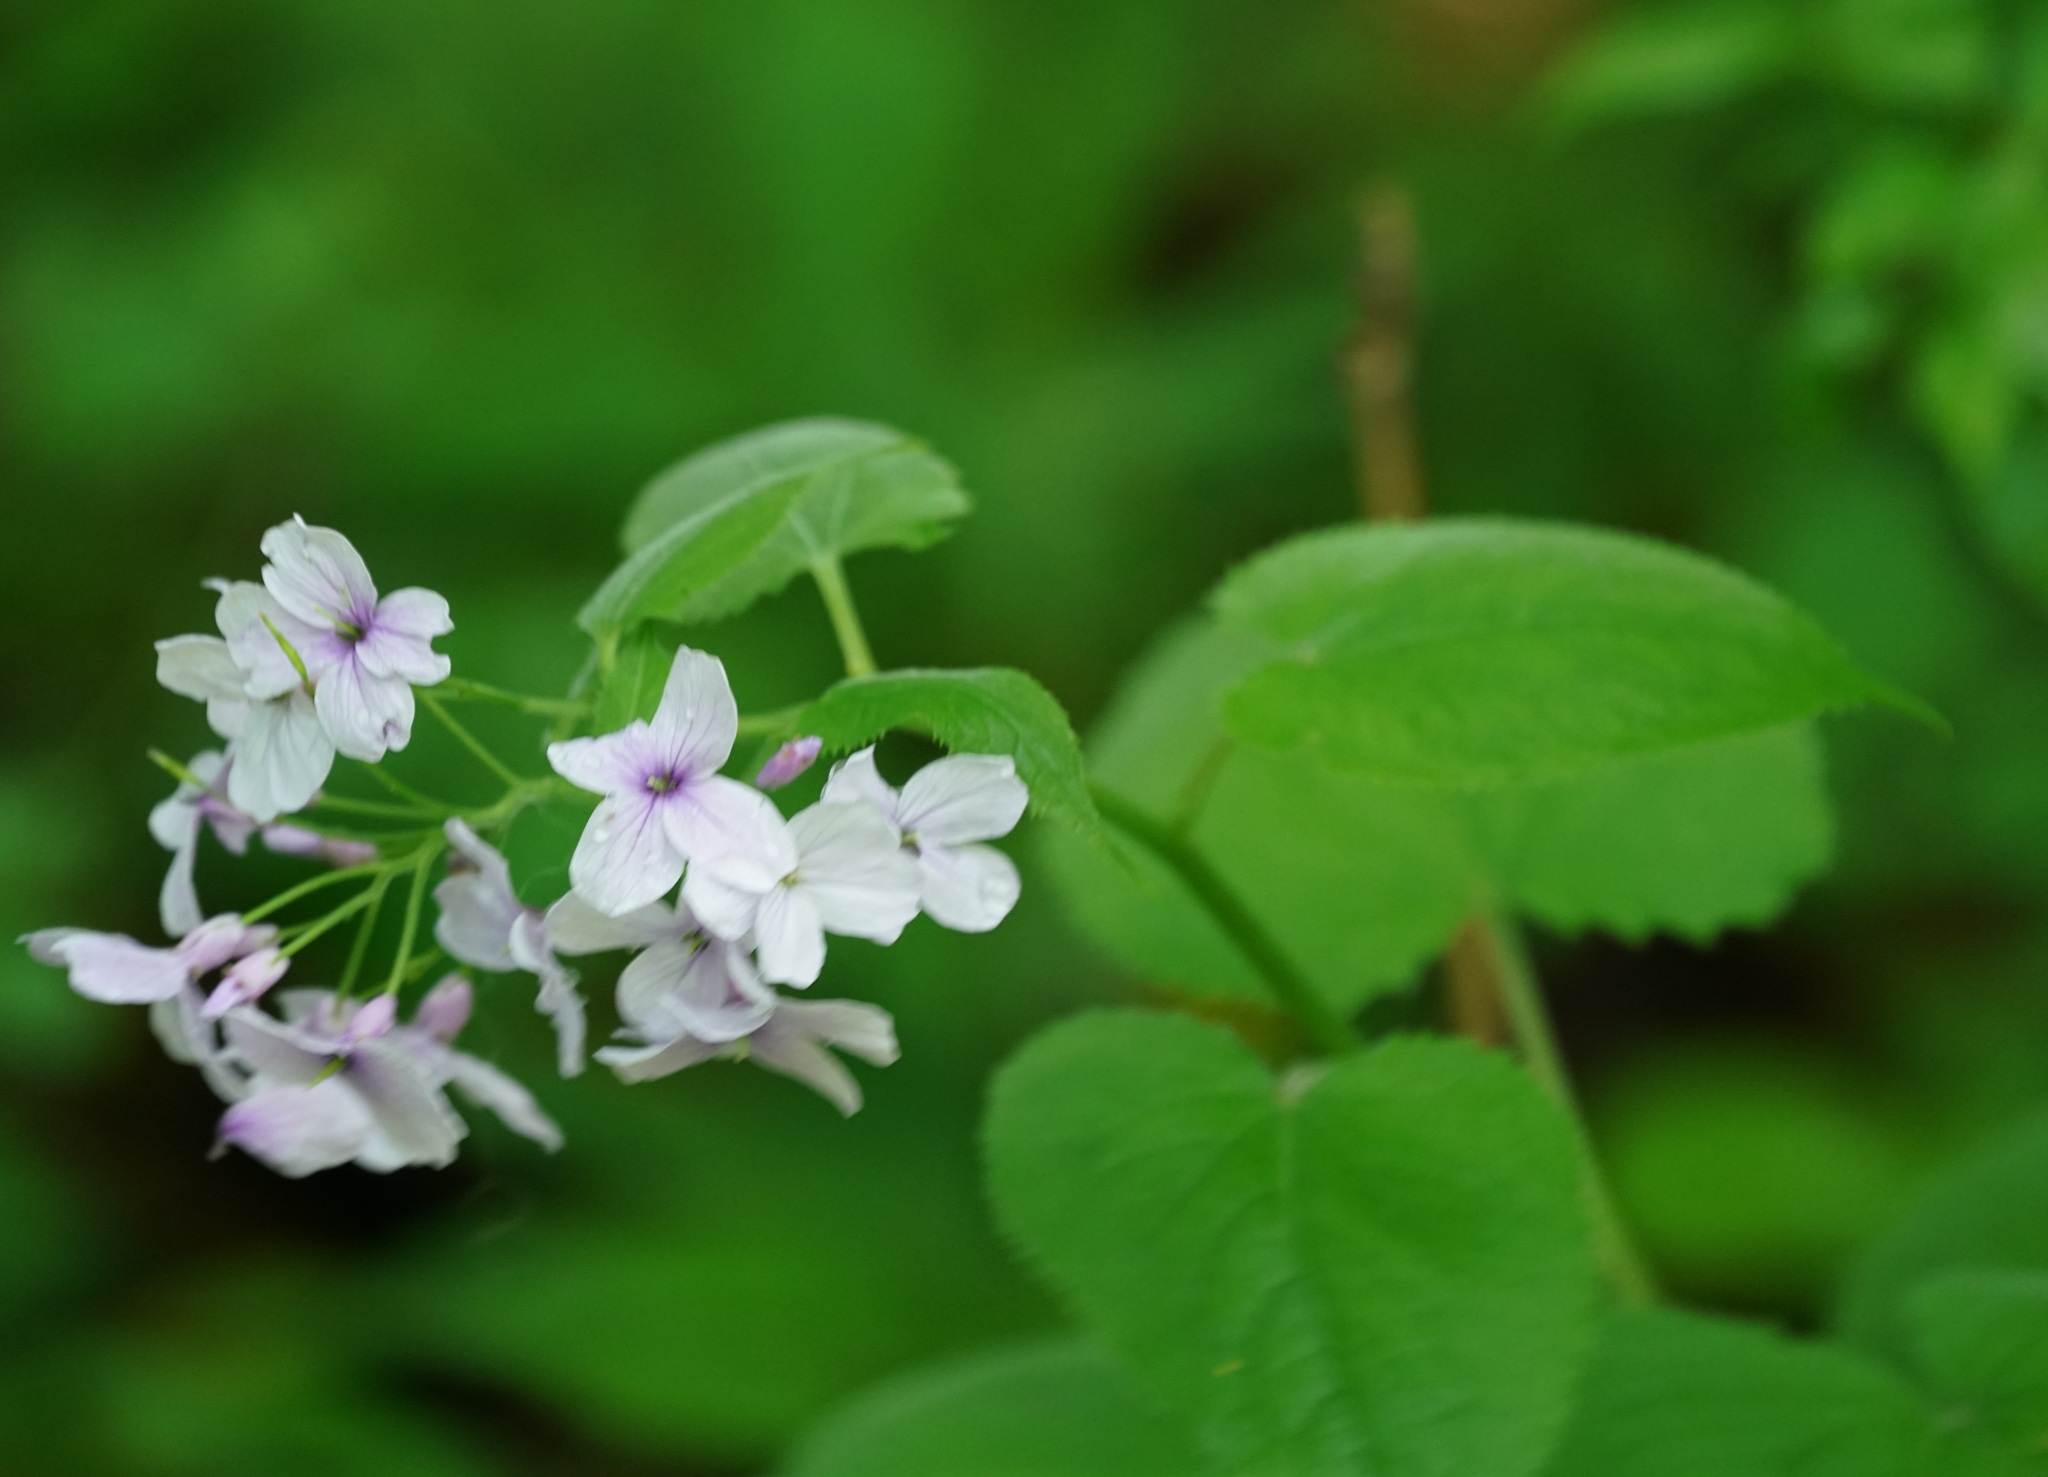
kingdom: Plantae
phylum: Tracheophyta
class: Magnoliopsida
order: Brassicales
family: Brassicaceae
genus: Lunaria
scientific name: Lunaria rediviva
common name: Perennial honesty
